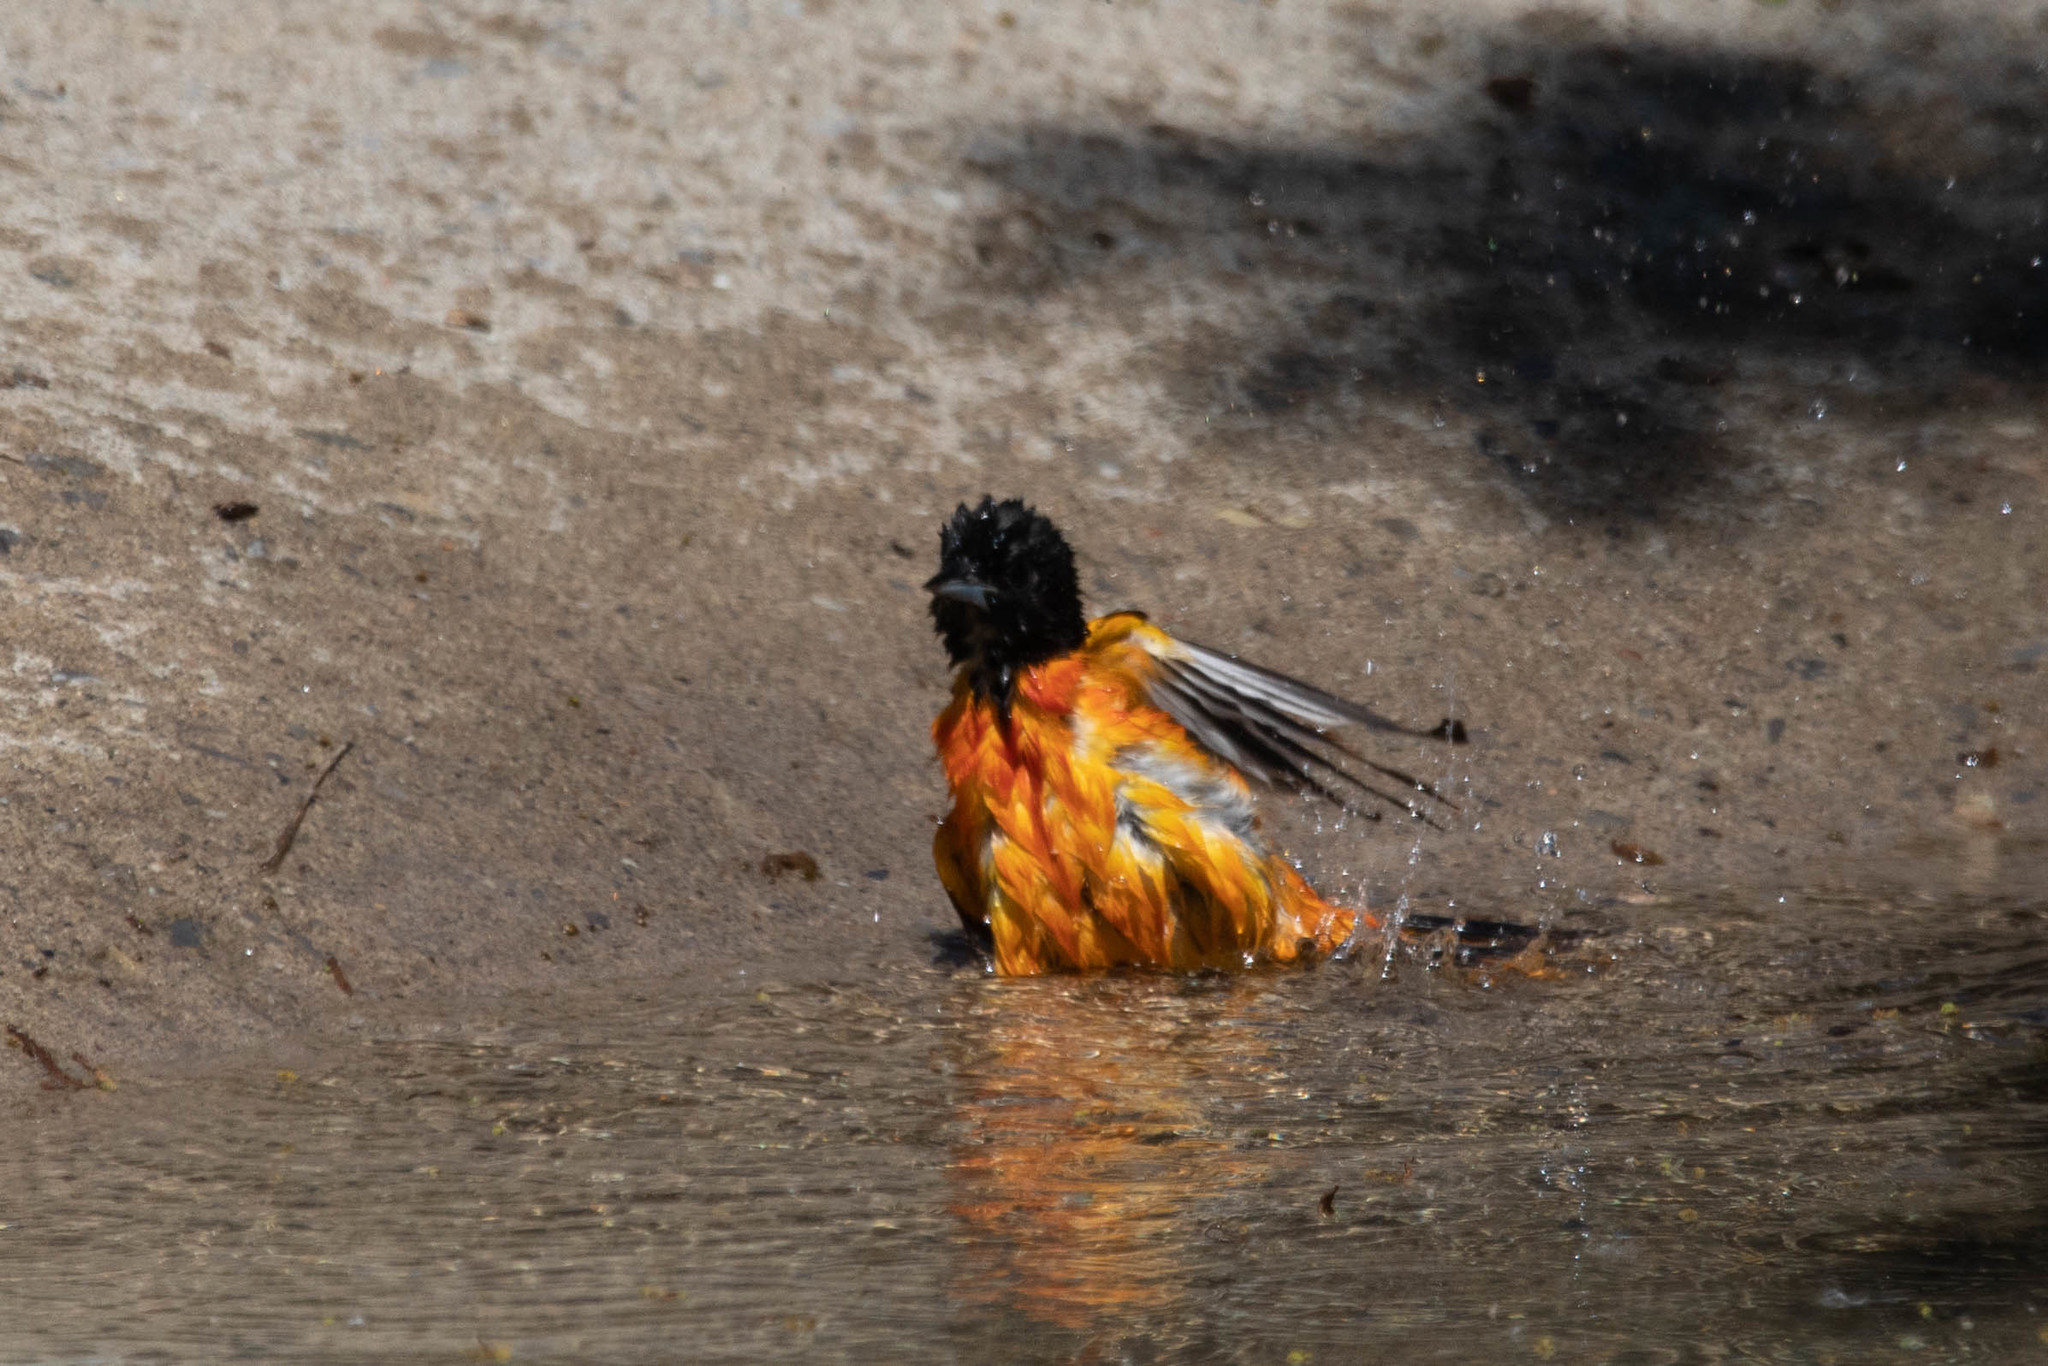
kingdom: Animalia
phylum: Chordata
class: Aves
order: Passeriformes
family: Icteridae
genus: Icterus
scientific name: Icterus galbula
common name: Baltimore oriole
